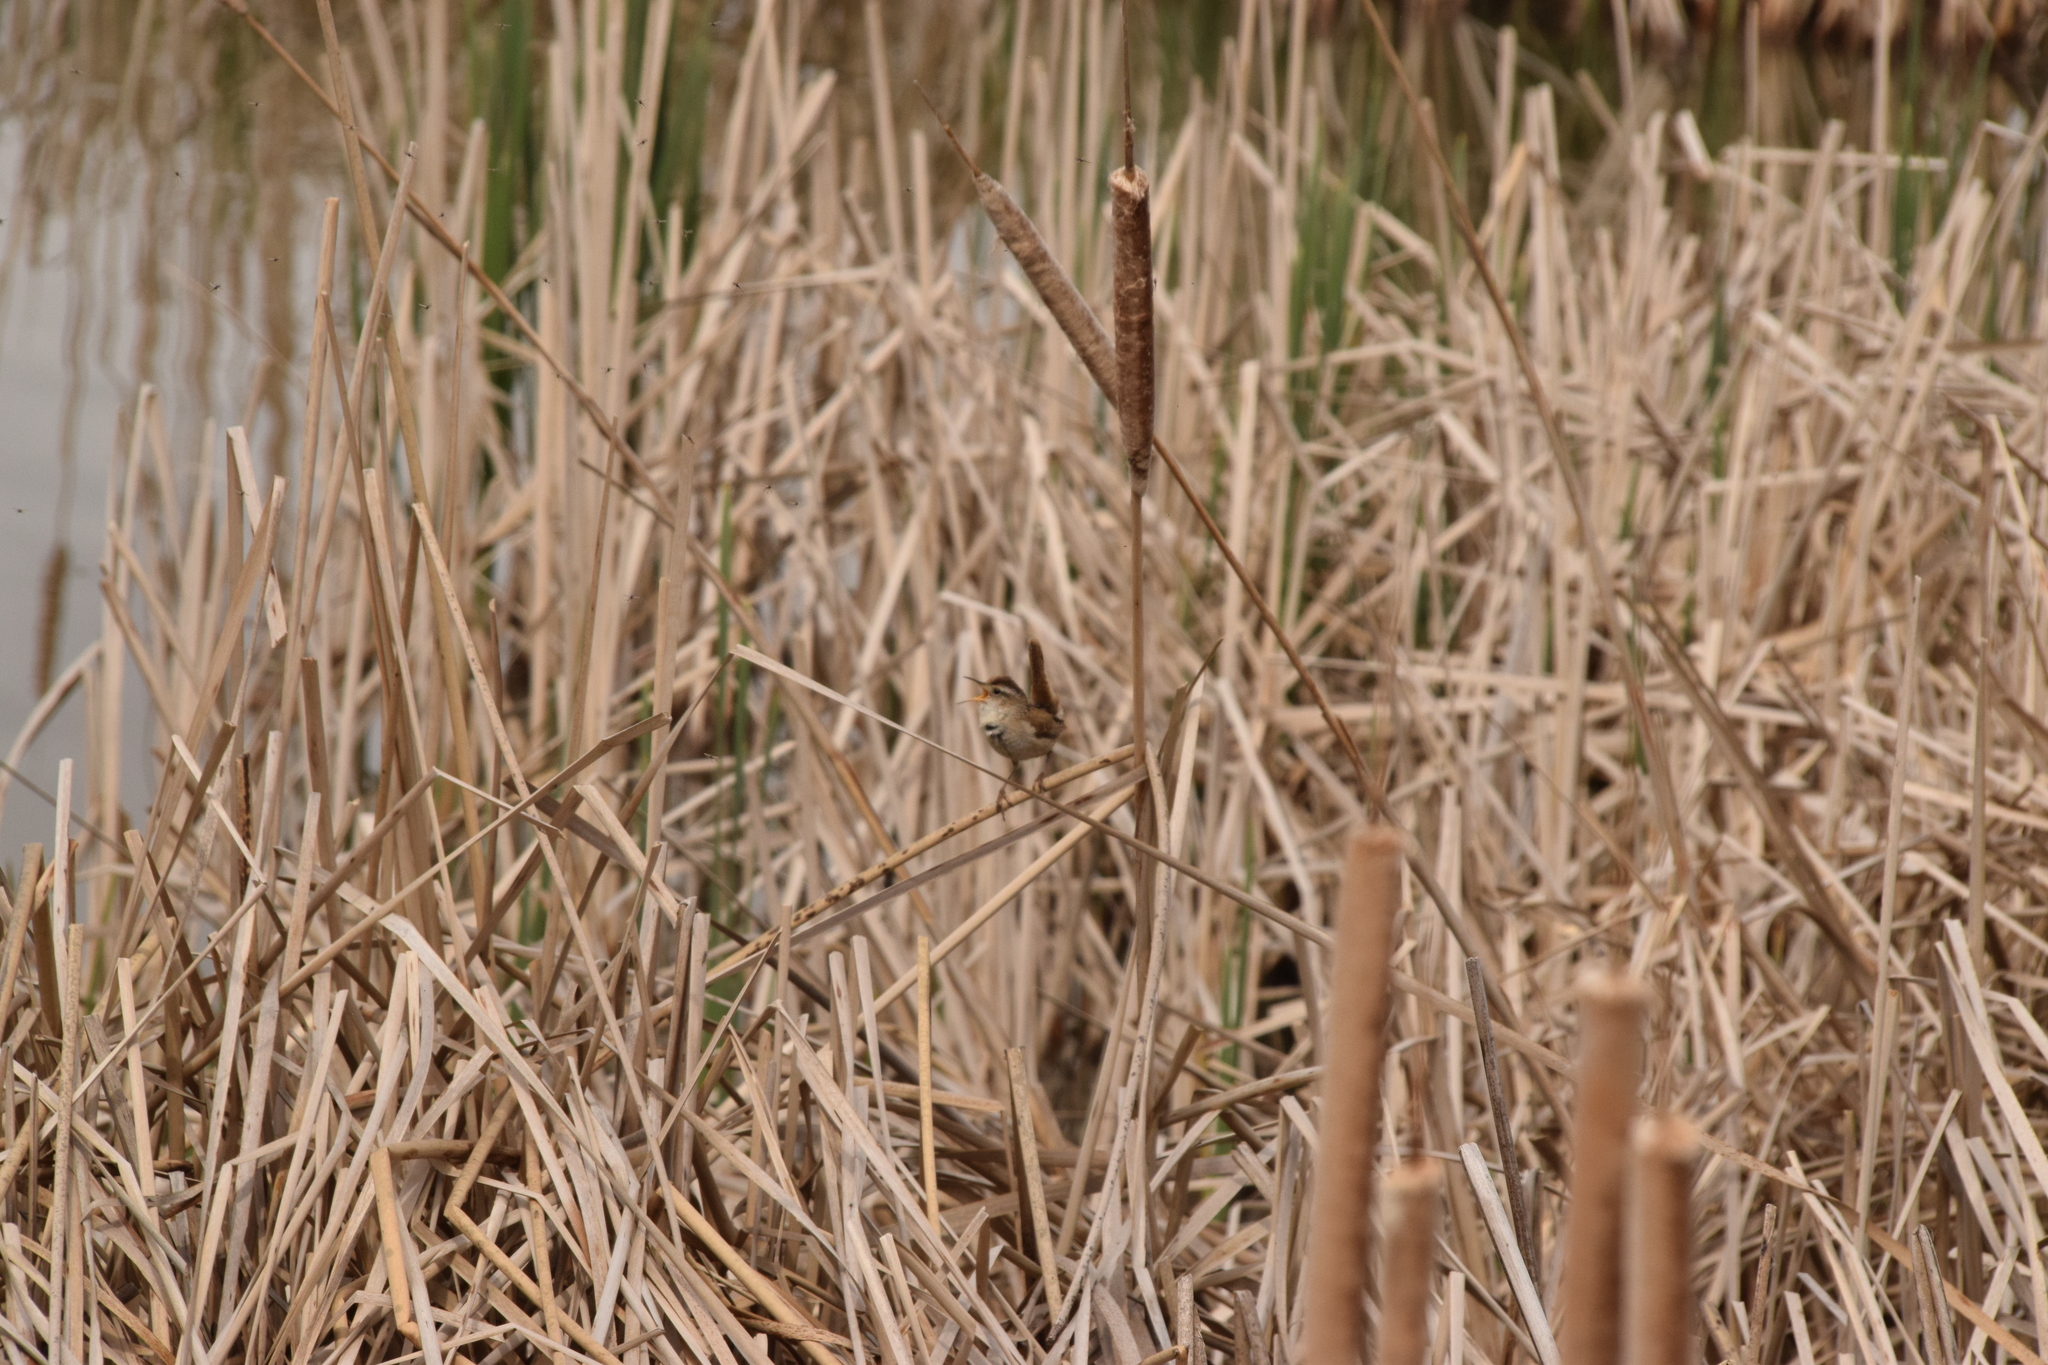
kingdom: Animalia
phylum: Chordata
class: Aves
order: Passeriformes
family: Troglodytidae
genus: Cistothorus
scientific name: Cistothorus palustris
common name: Marsh wren
